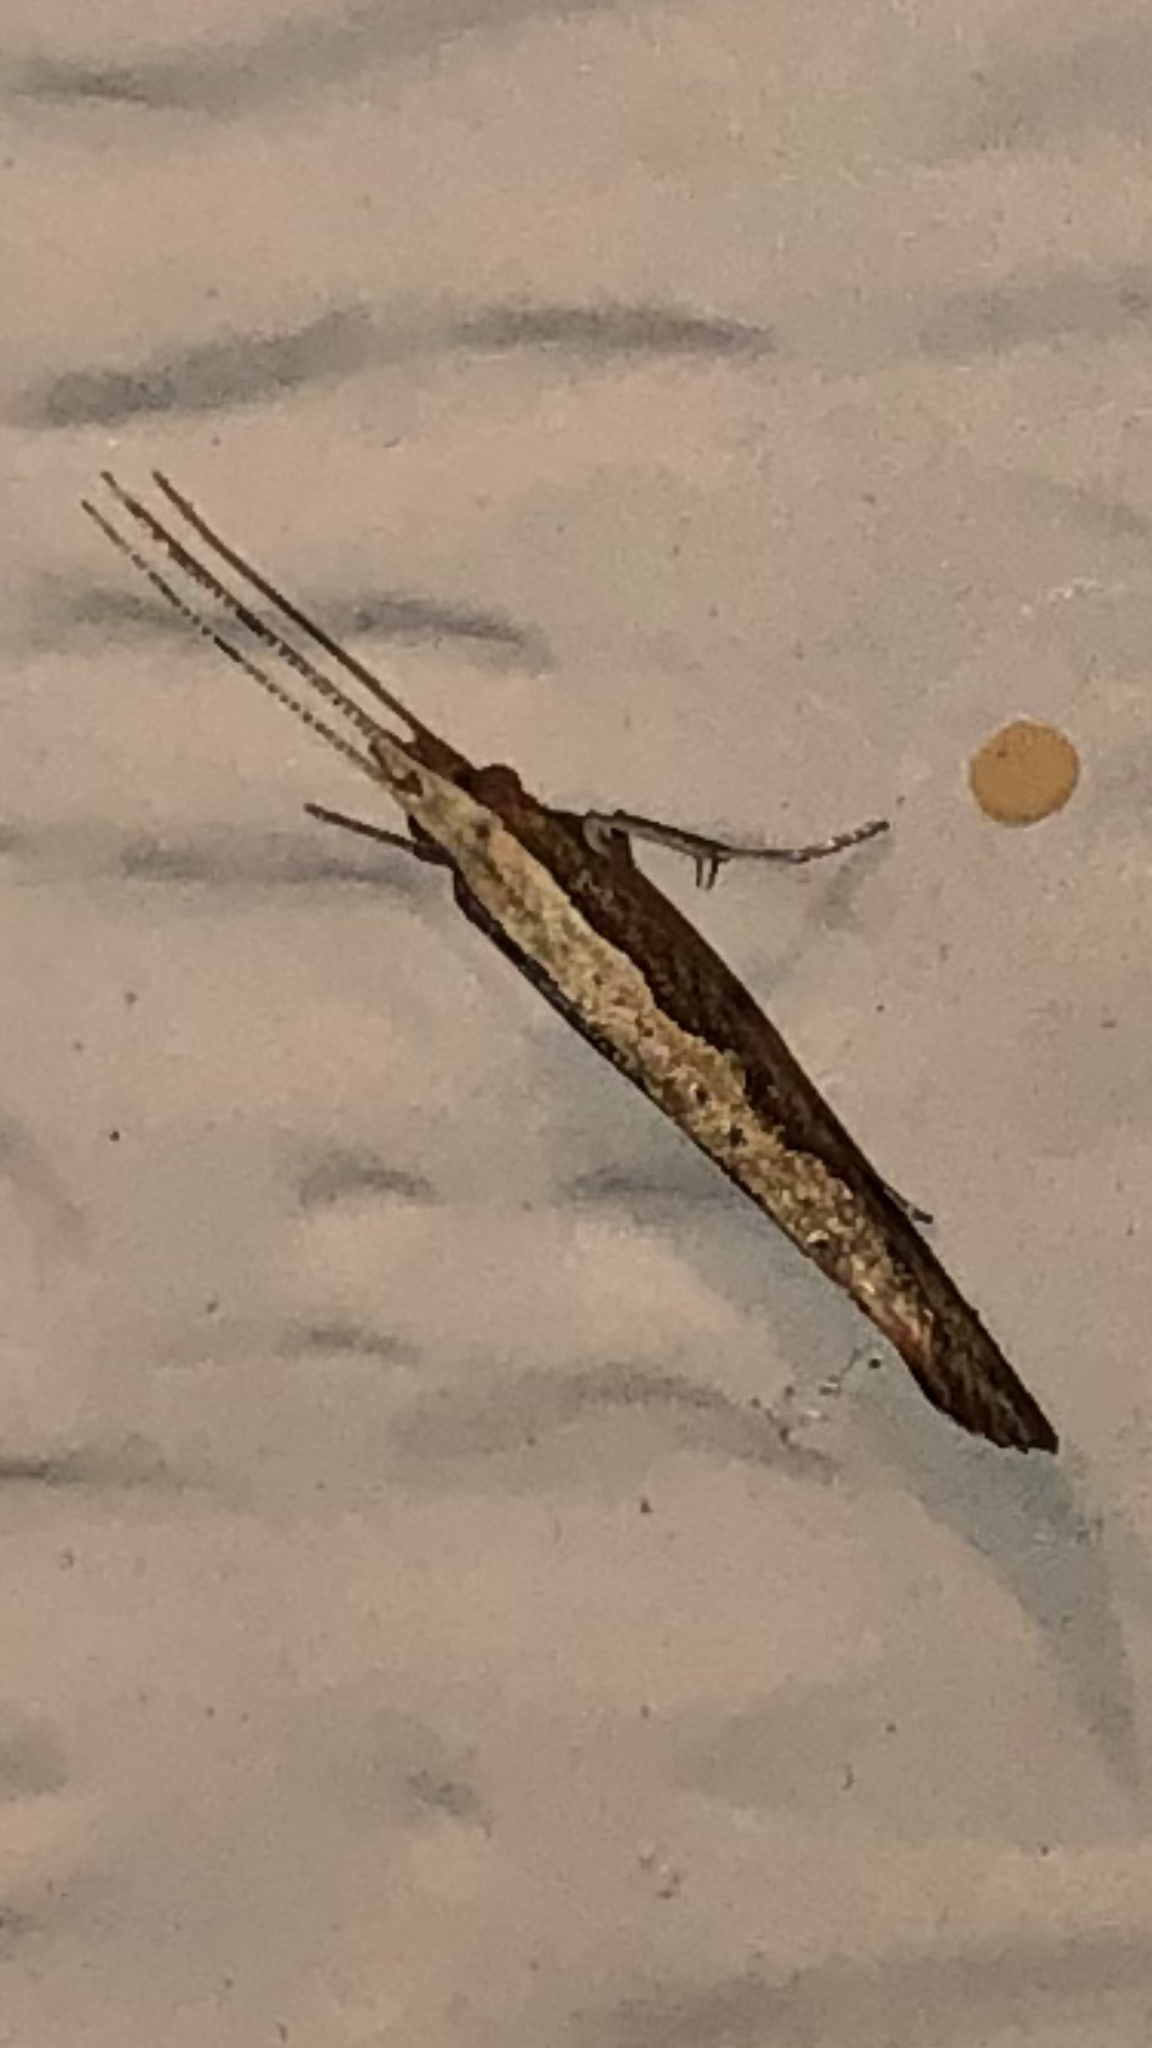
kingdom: Animalia
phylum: Arthropoda
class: Insecta
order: Lepidoptera
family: Plutellidae
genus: Plutella
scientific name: Plutella xylostella
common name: Diamond-back moth
